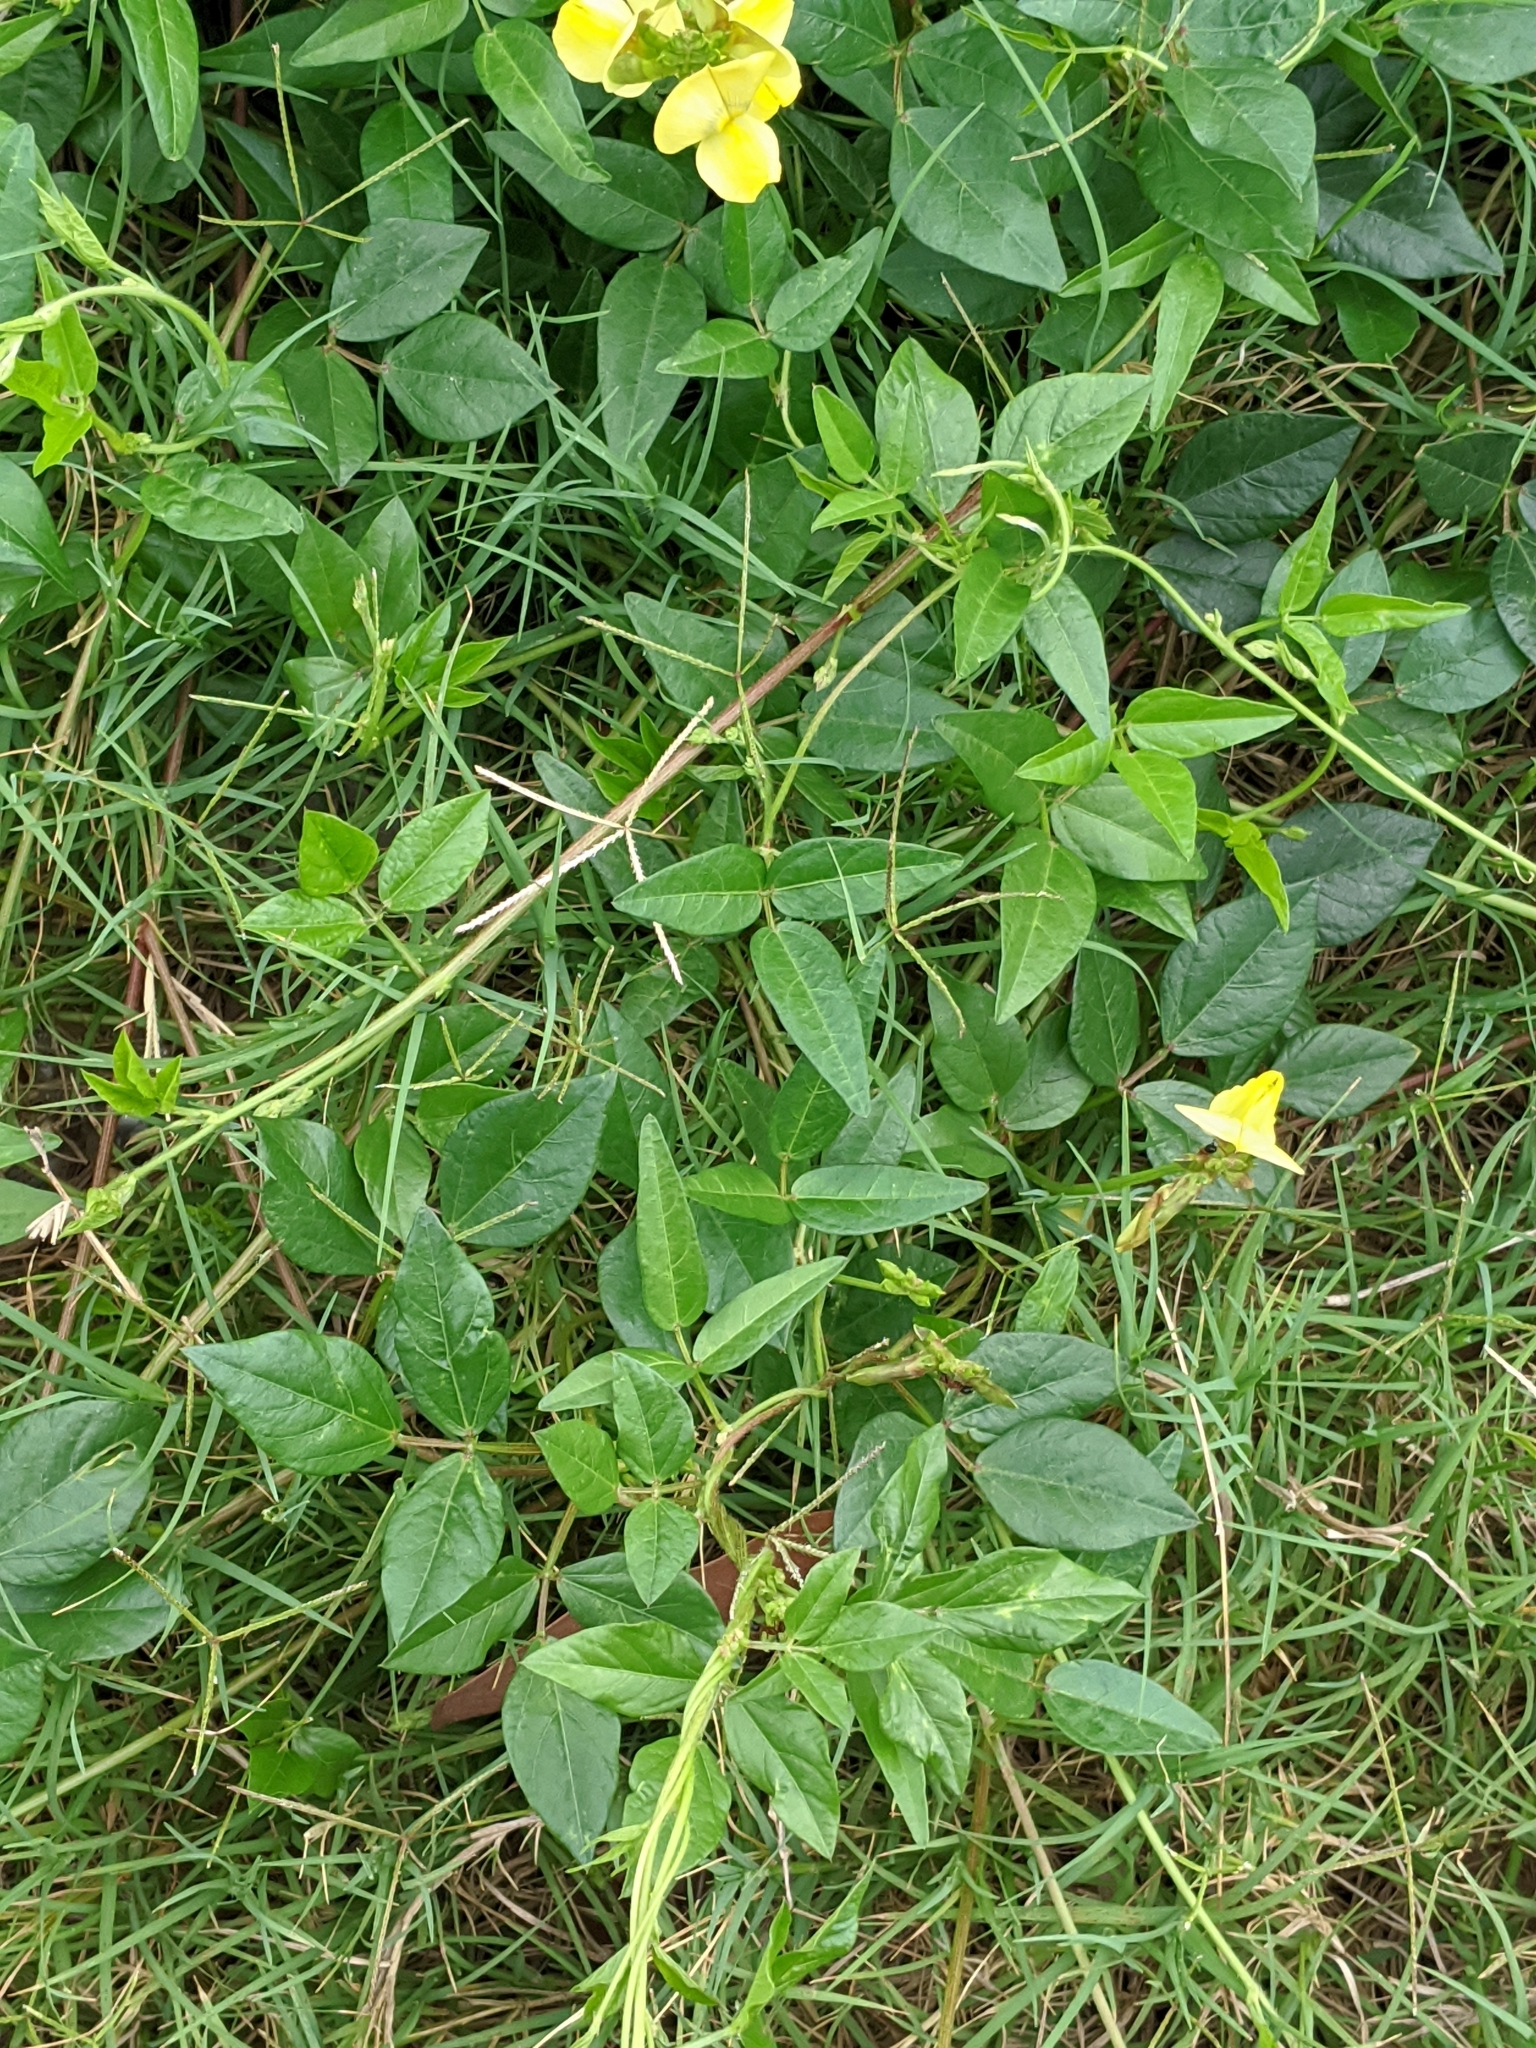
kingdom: Plantae
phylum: Tracheophyta
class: Magnoliopsida
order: Fabales
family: Fabaceae
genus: Vigna
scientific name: Vigna luteola
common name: Hairypod cowpea
